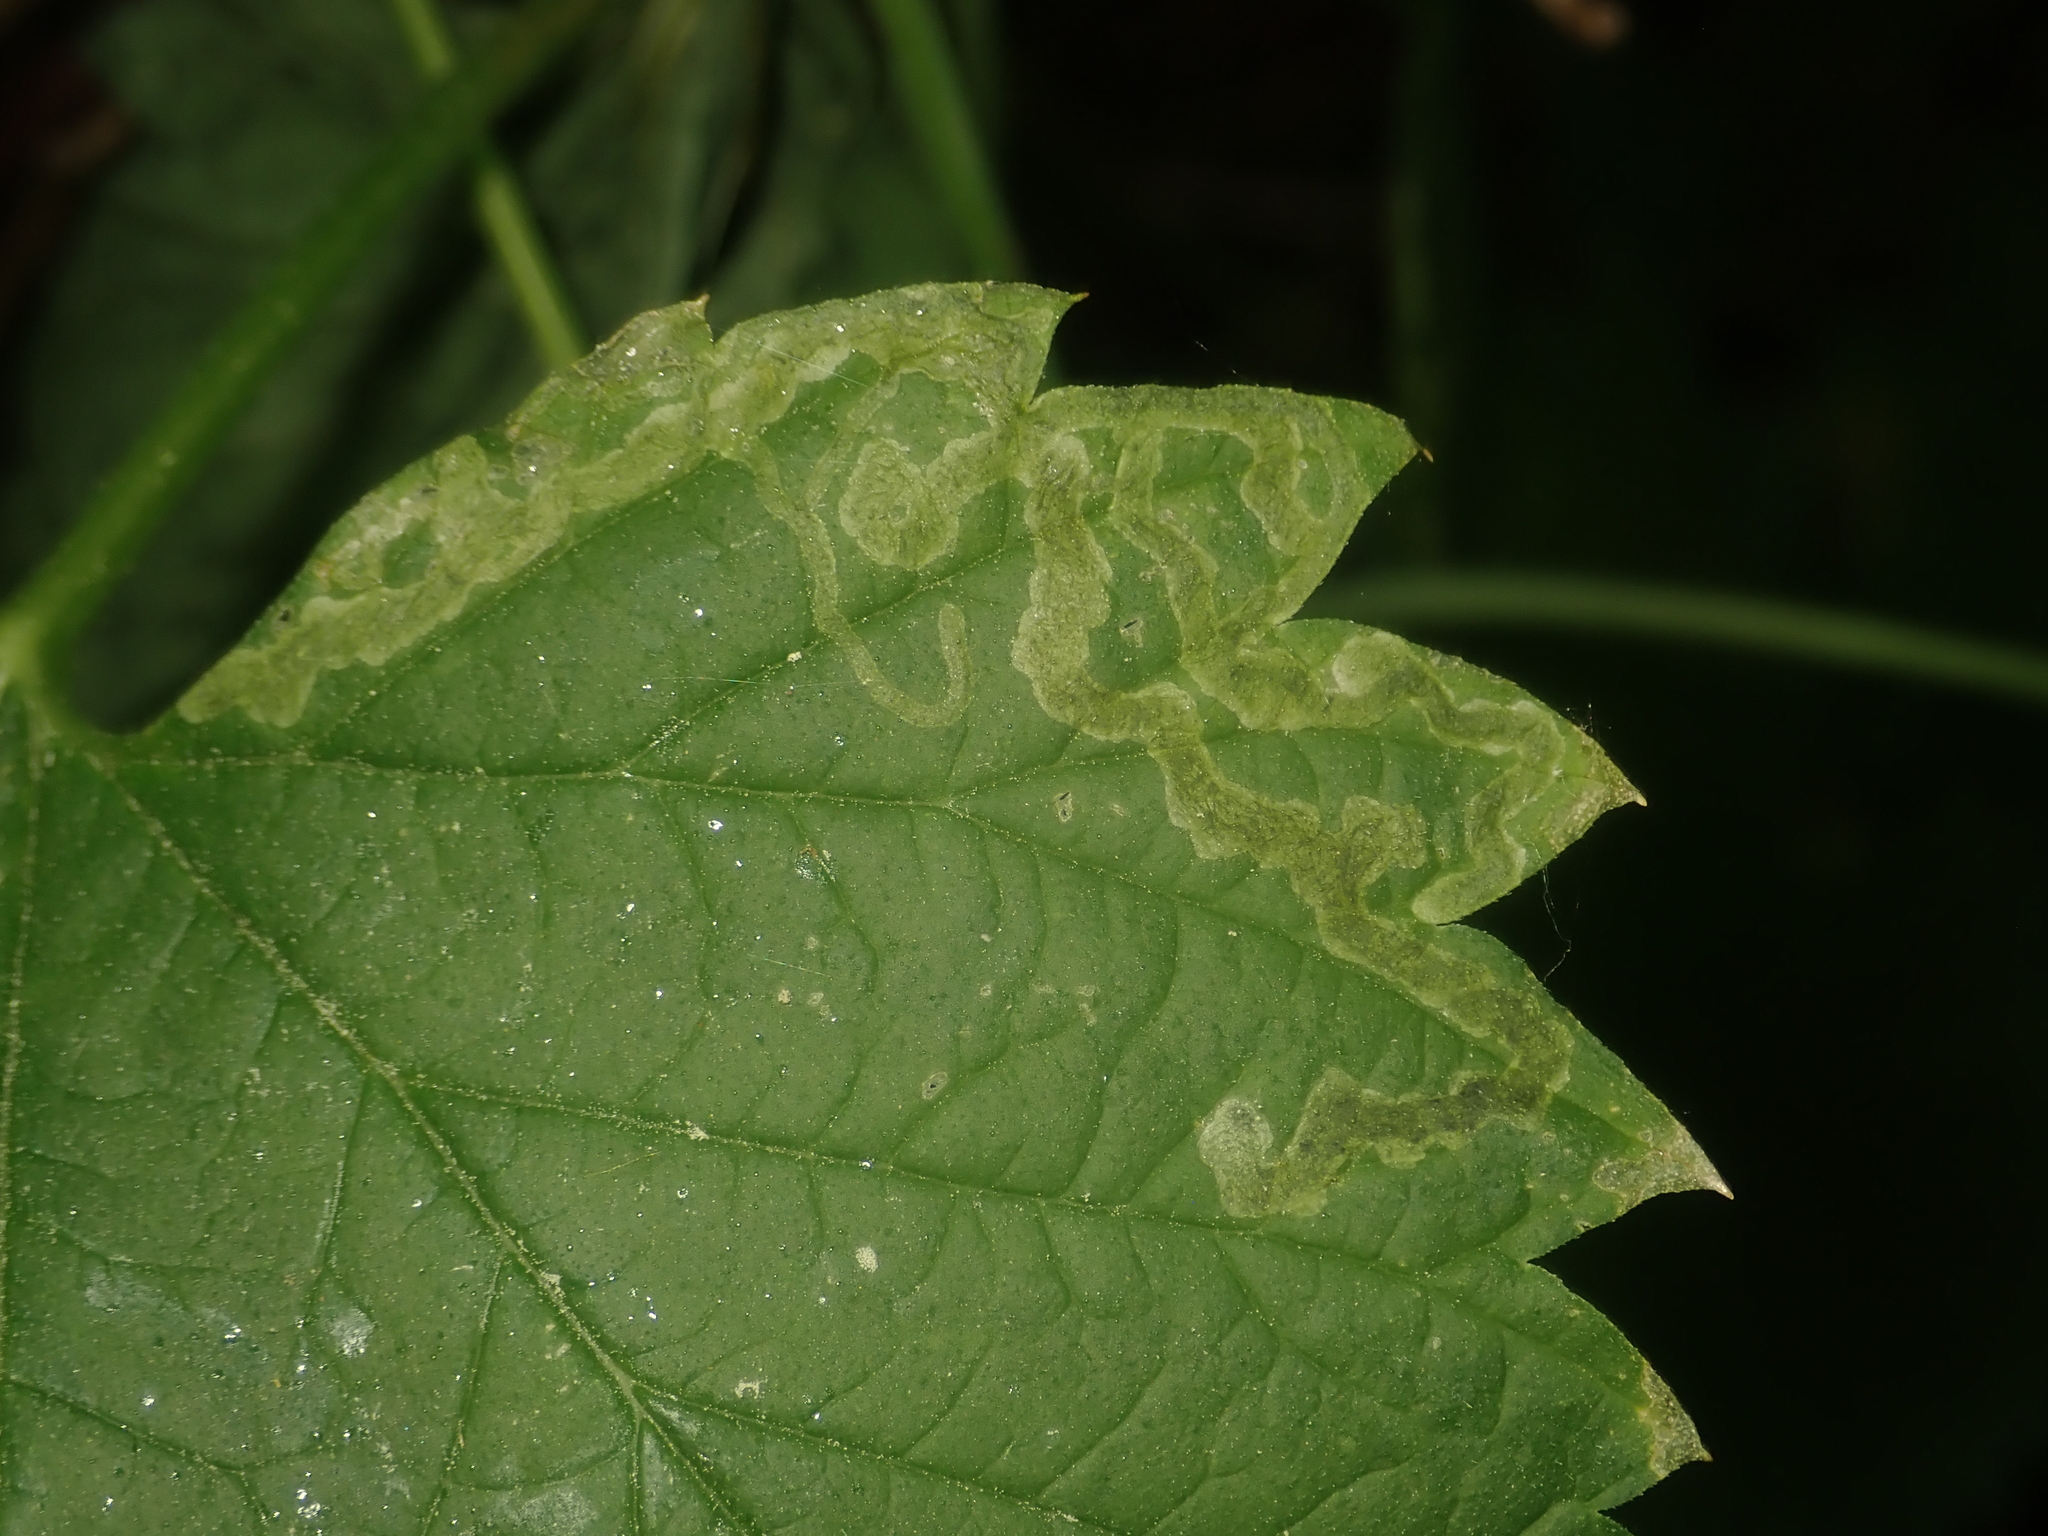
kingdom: Animalia
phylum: Arthropoda
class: Insecta
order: Diptera
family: Agromyzidae
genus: Agromyza
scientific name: Agromyza flaviceps
